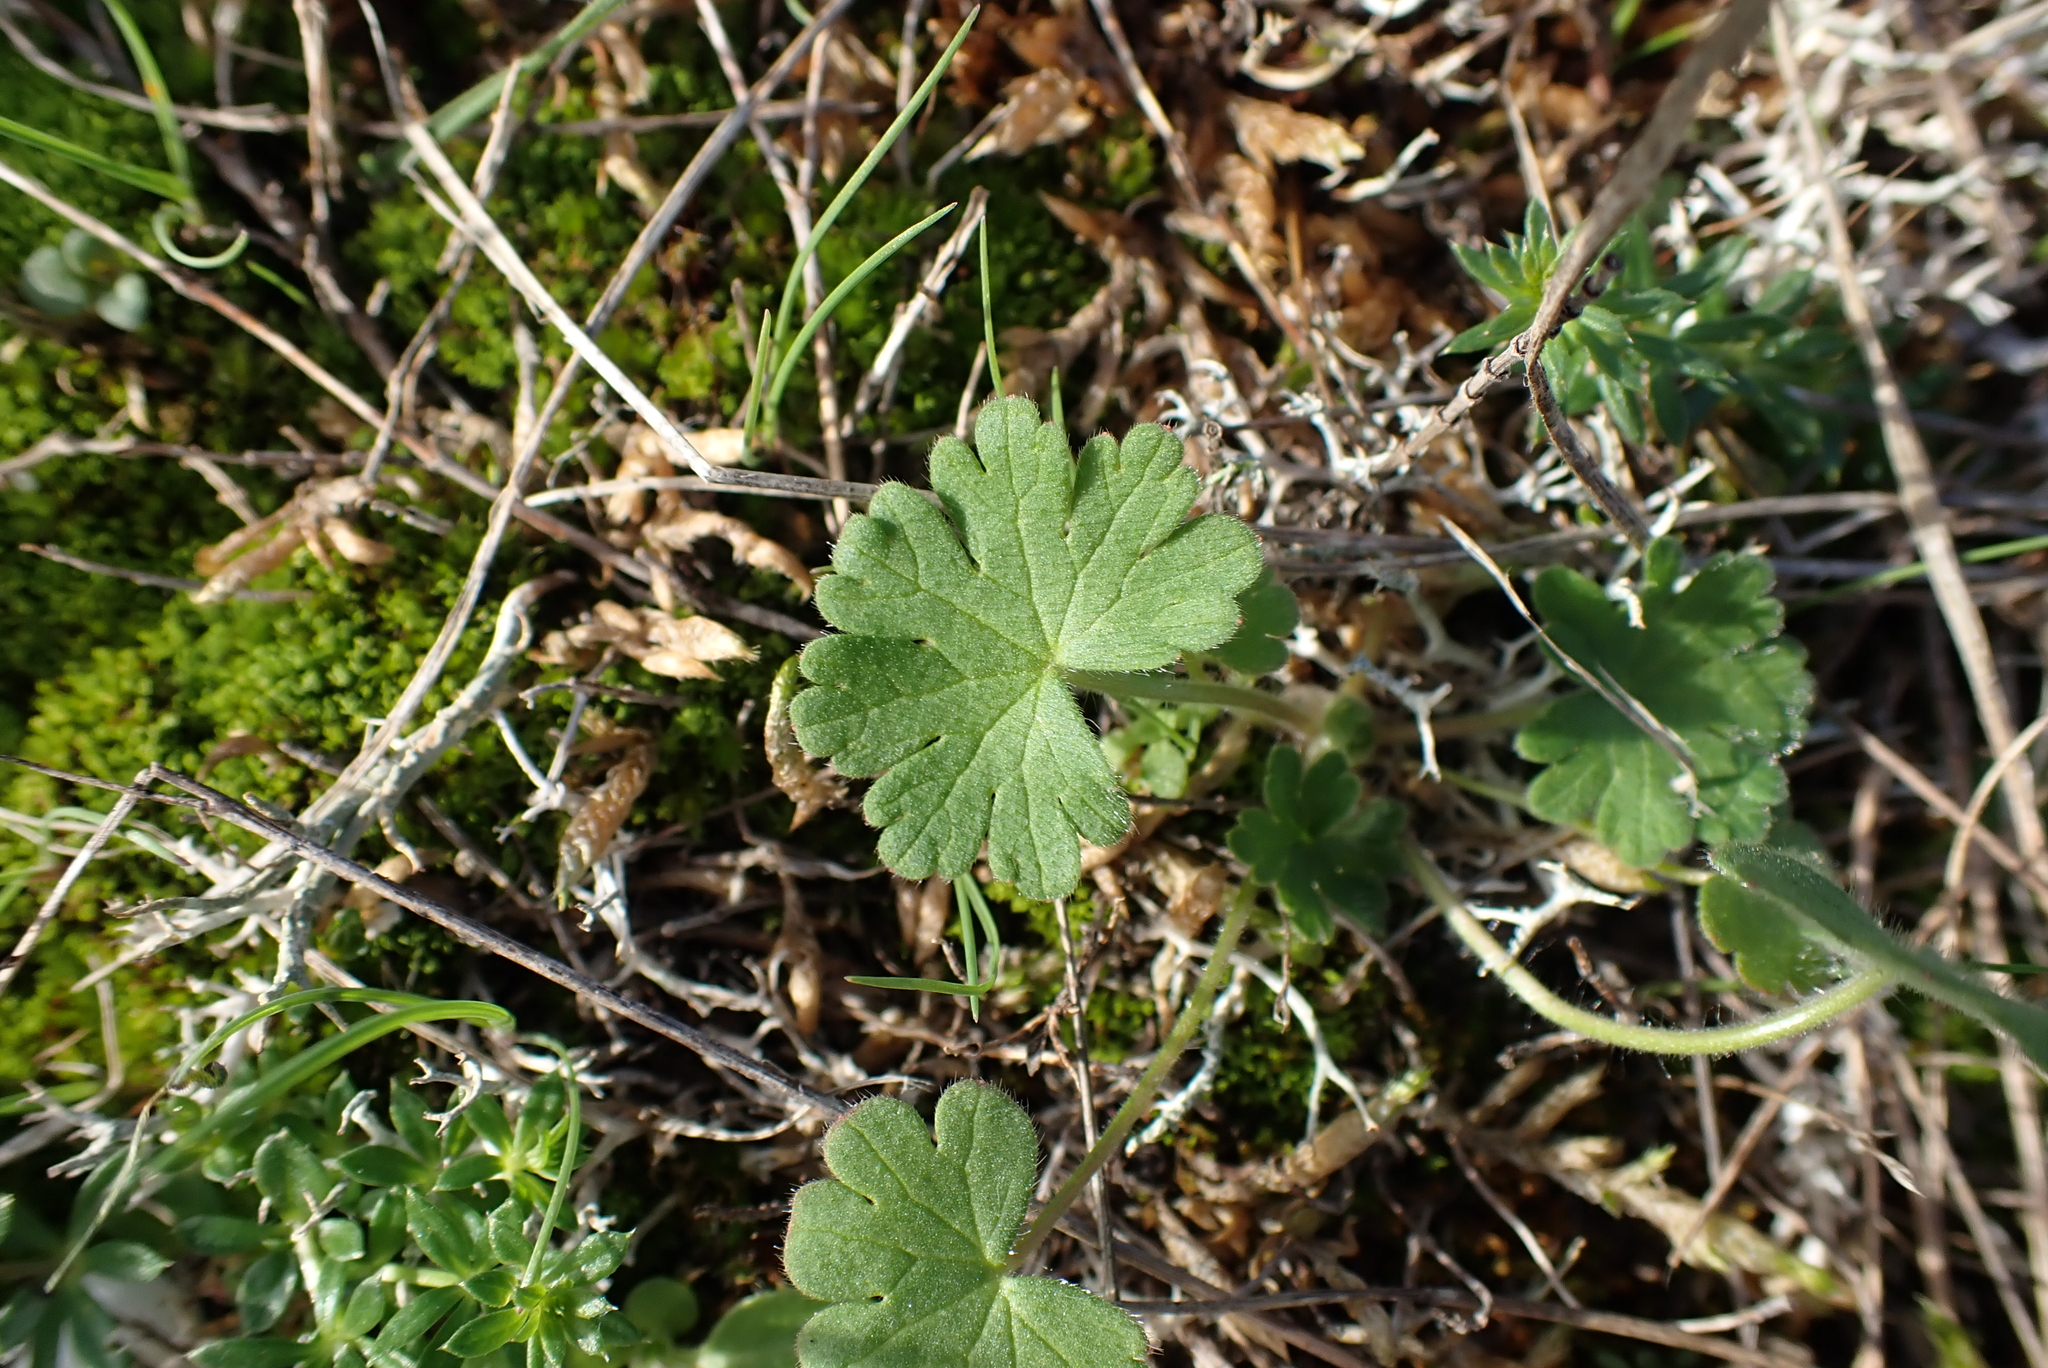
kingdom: Plantae
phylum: Tracheophyta
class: Magnoliopsida
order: Geraniales
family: Geraniaceae
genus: Geranium
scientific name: Geranium molle
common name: Dove's-foot crane's-bill
